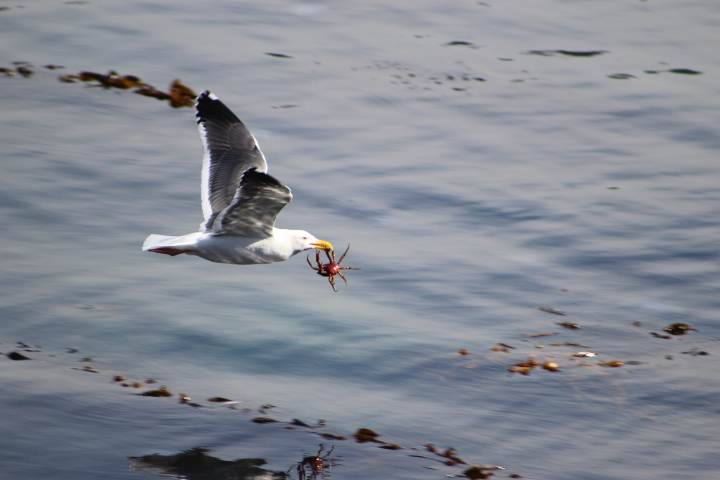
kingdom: Animalia
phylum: Chordata
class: Aves
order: Charadriiformes
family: Laridae
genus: Larus
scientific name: Larus occidentalis
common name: Western gull
